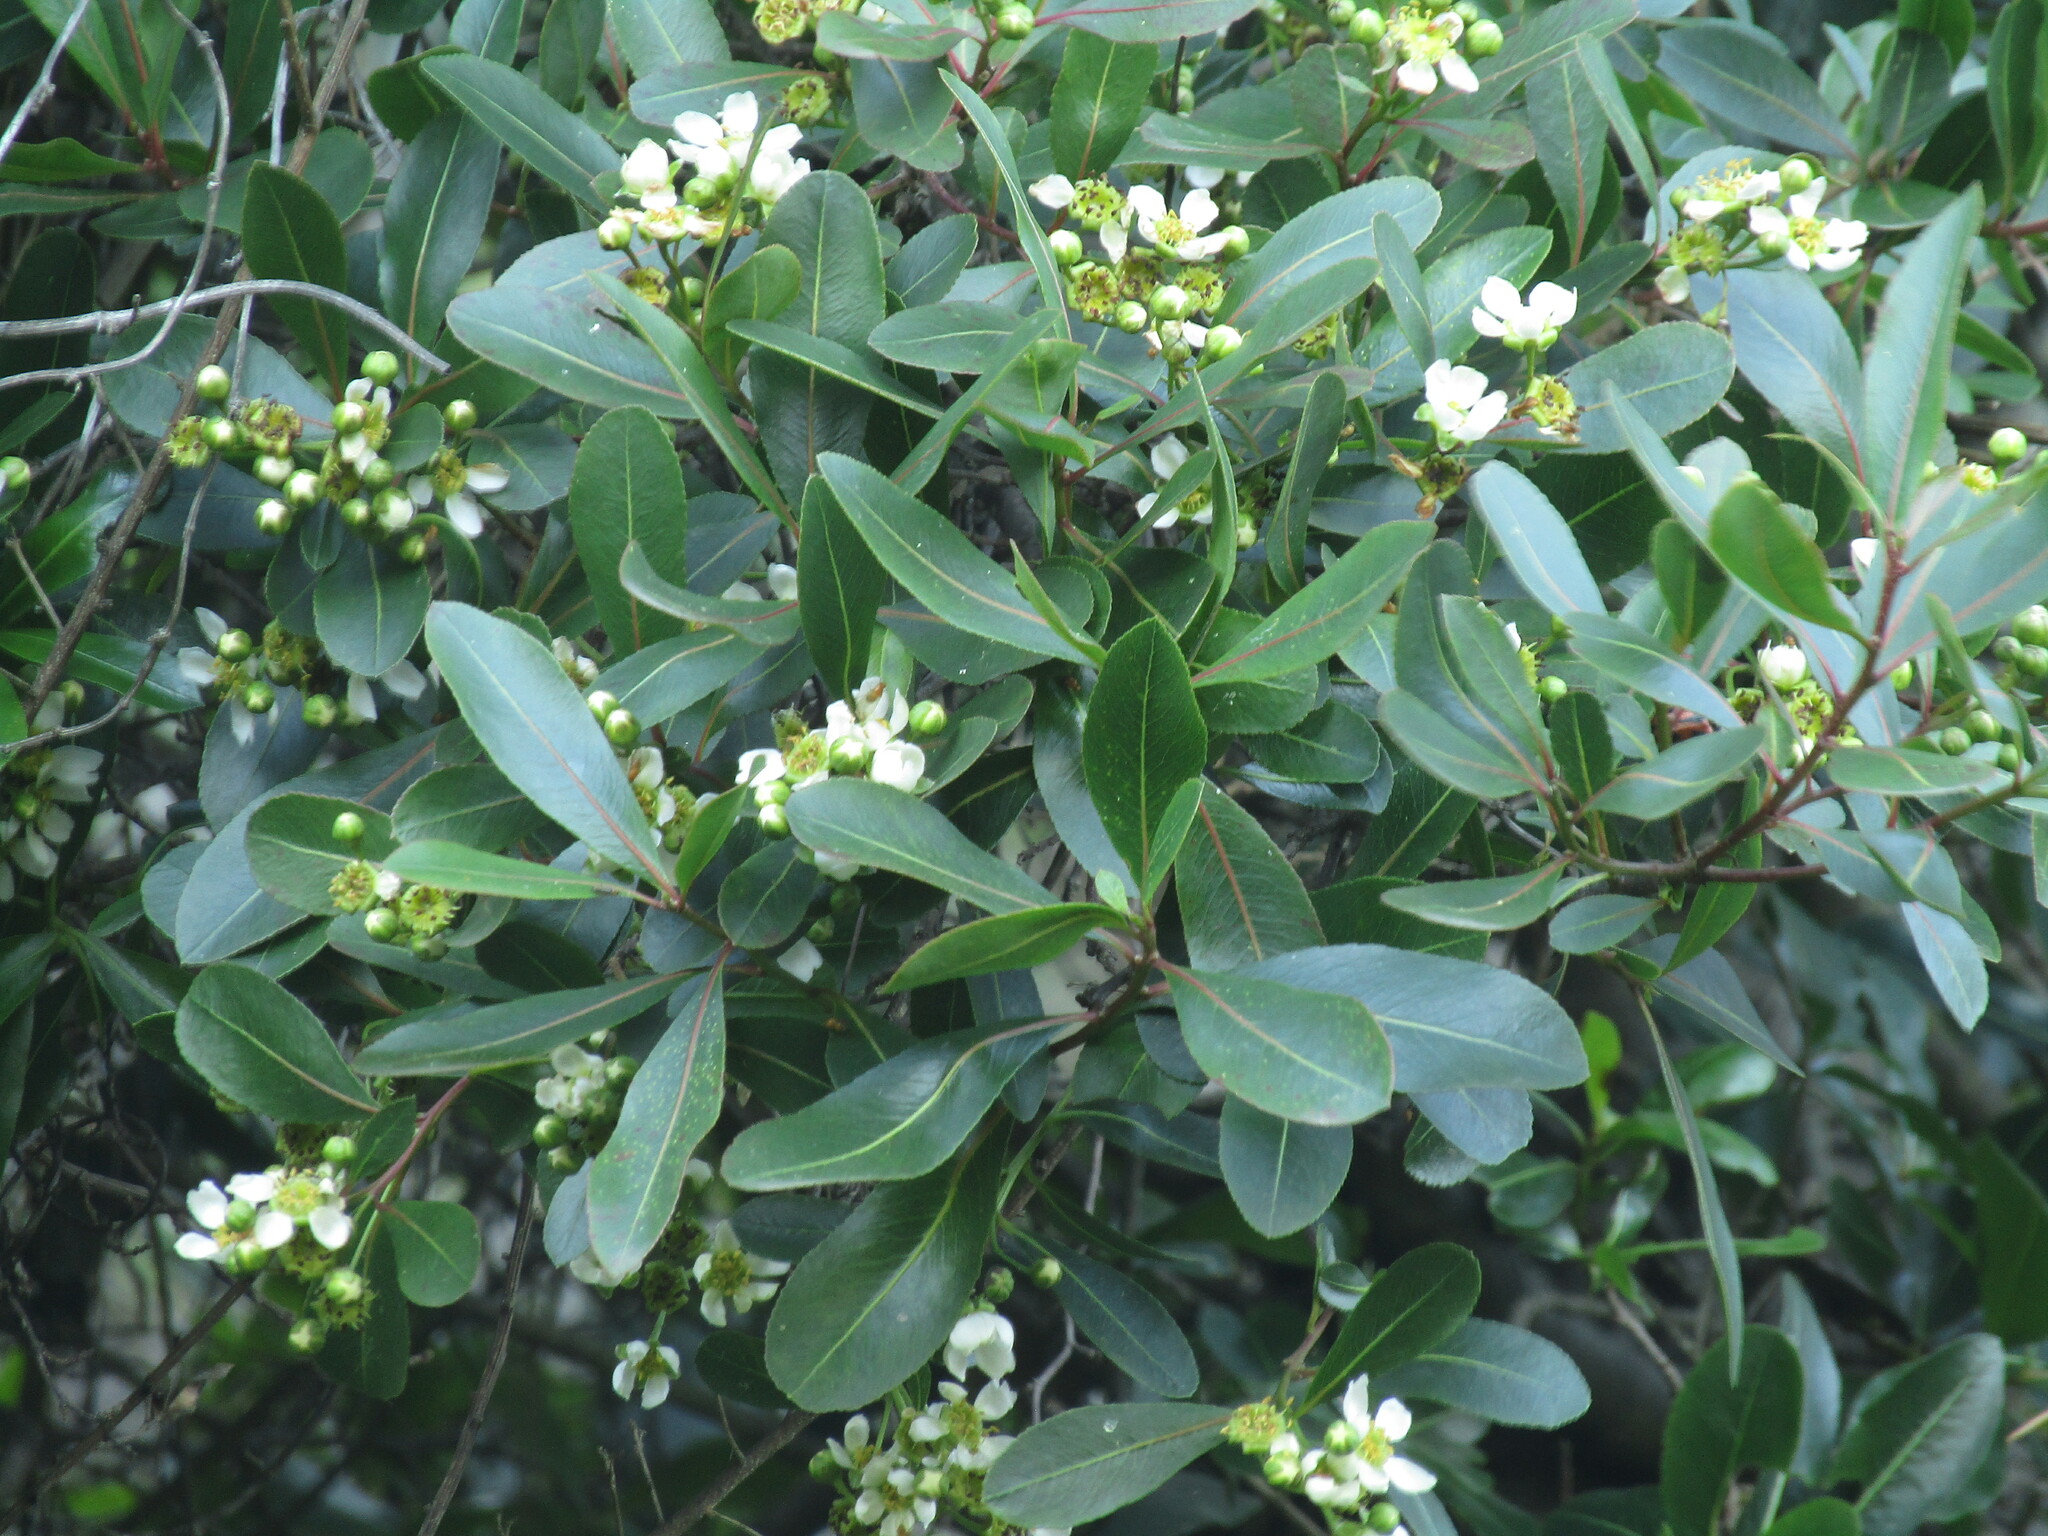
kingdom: Plantae
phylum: Tracheophyta
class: Magnoliopsida
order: Rosales
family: Rosaceae
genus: Kageneckia
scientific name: Kageneckia oblonga
